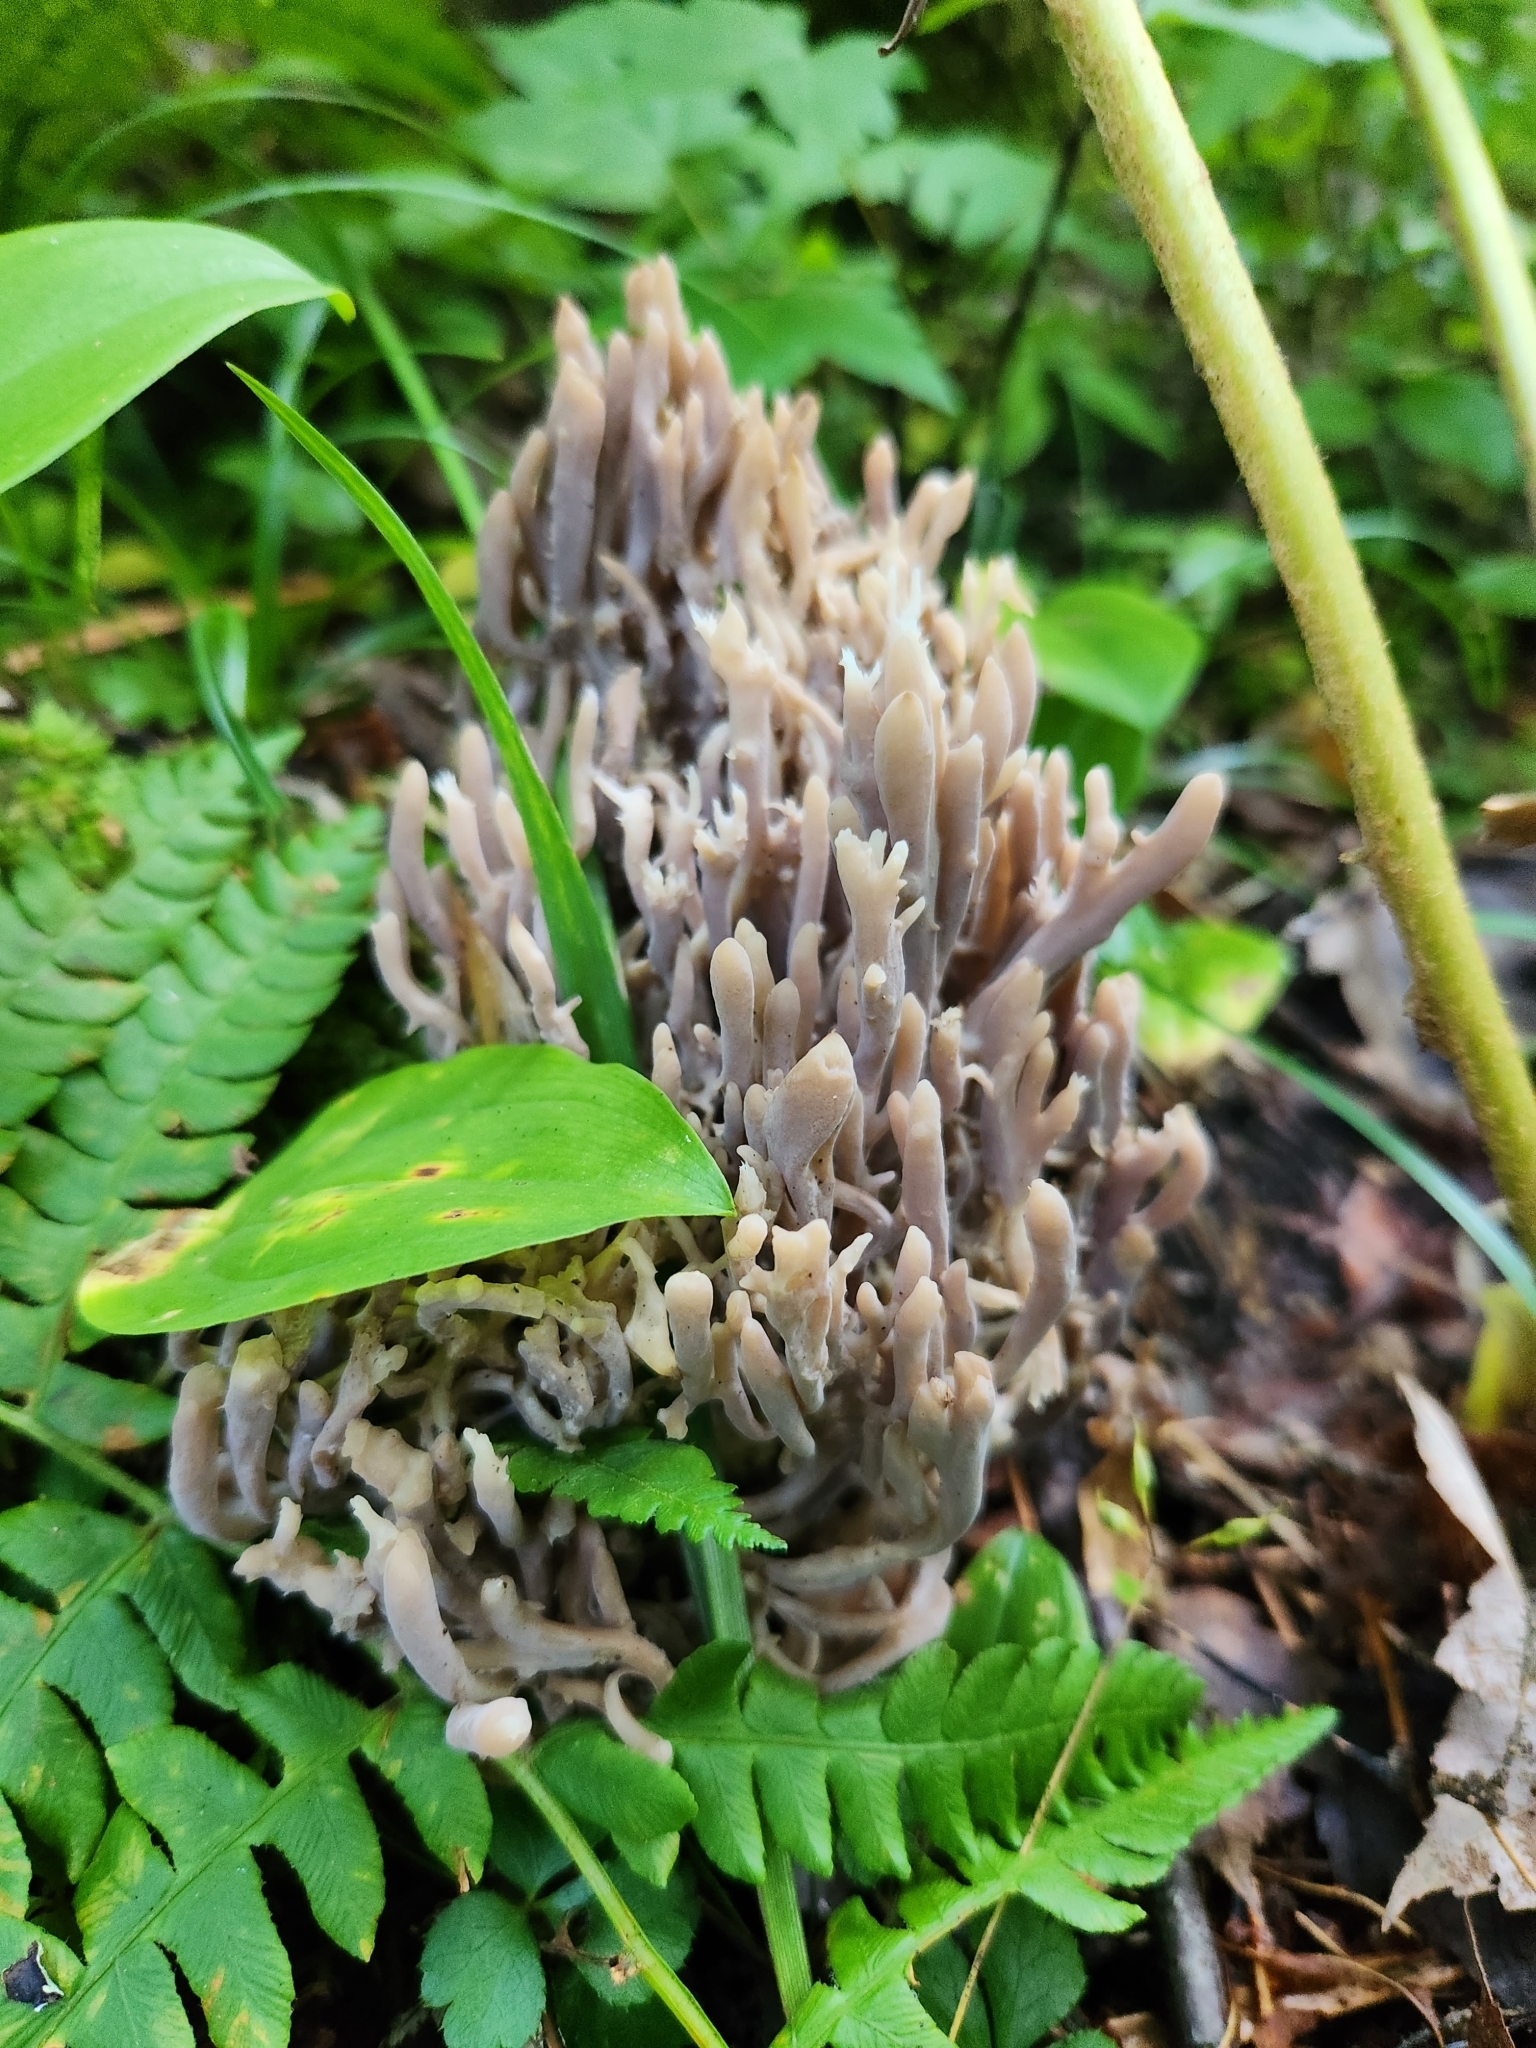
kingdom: Fungi
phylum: Basidiomycota
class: Agaricomycetes
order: Cantharellales
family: Hydnaceae
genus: Clavulina
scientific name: Clavulina cinerea
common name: Grey coral
